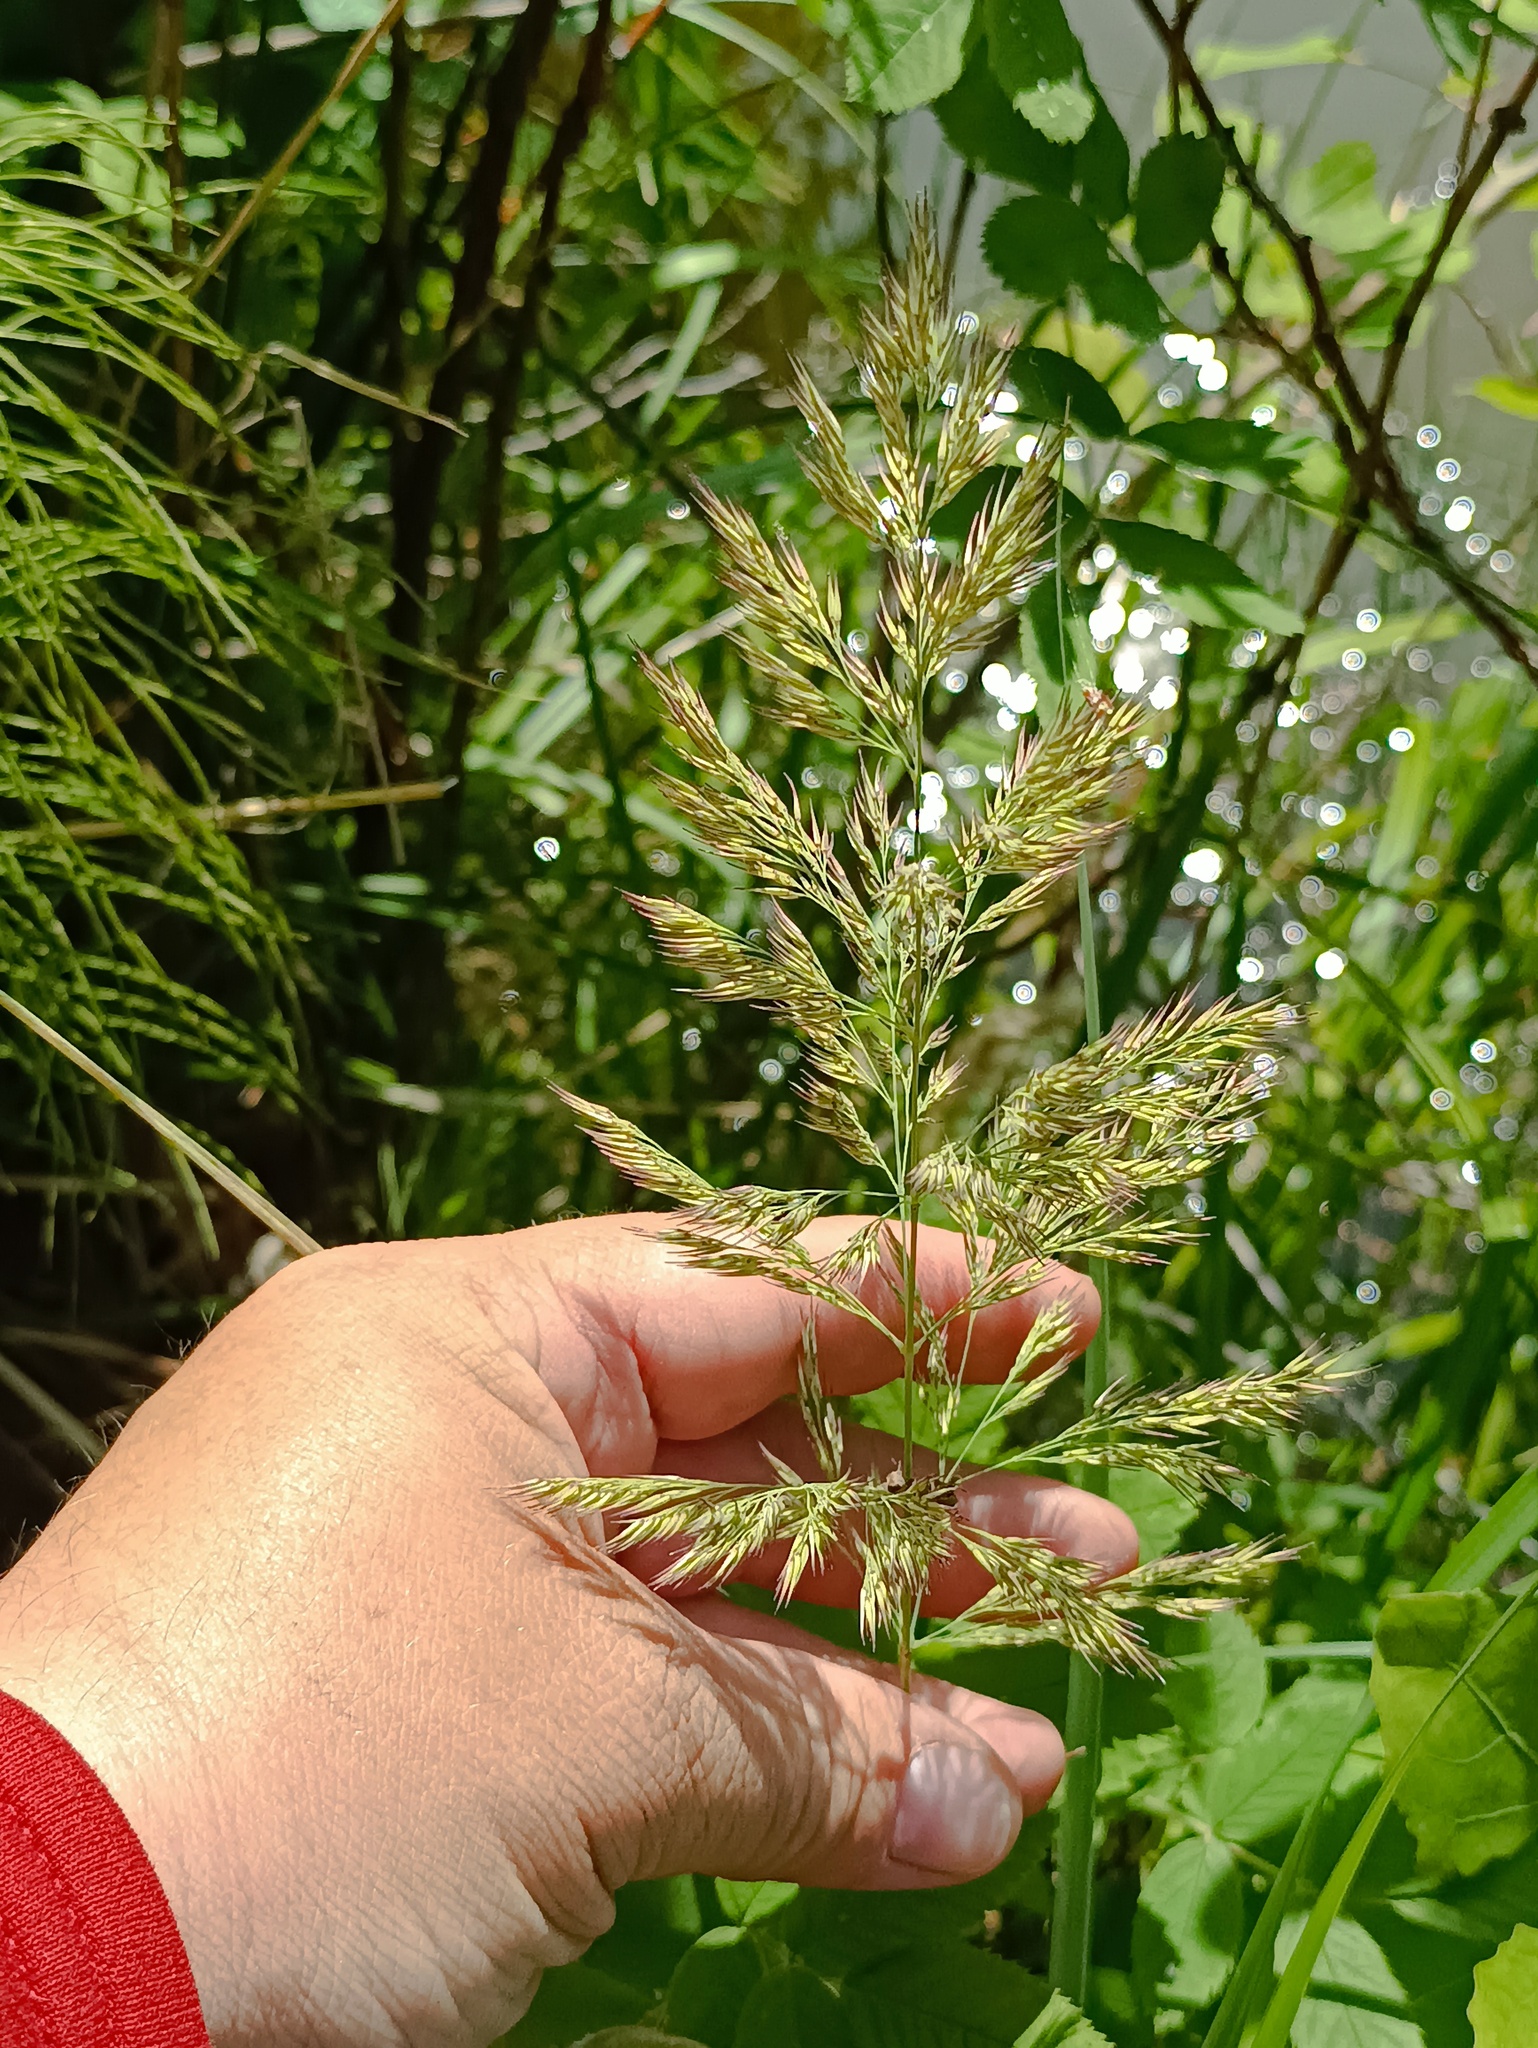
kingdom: Plantae
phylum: Tracheophyta
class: Liliopsida
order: Poales
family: Poaceae
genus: Calamagrostis
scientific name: Calamagrostis epigejos
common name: Wood small-reed
